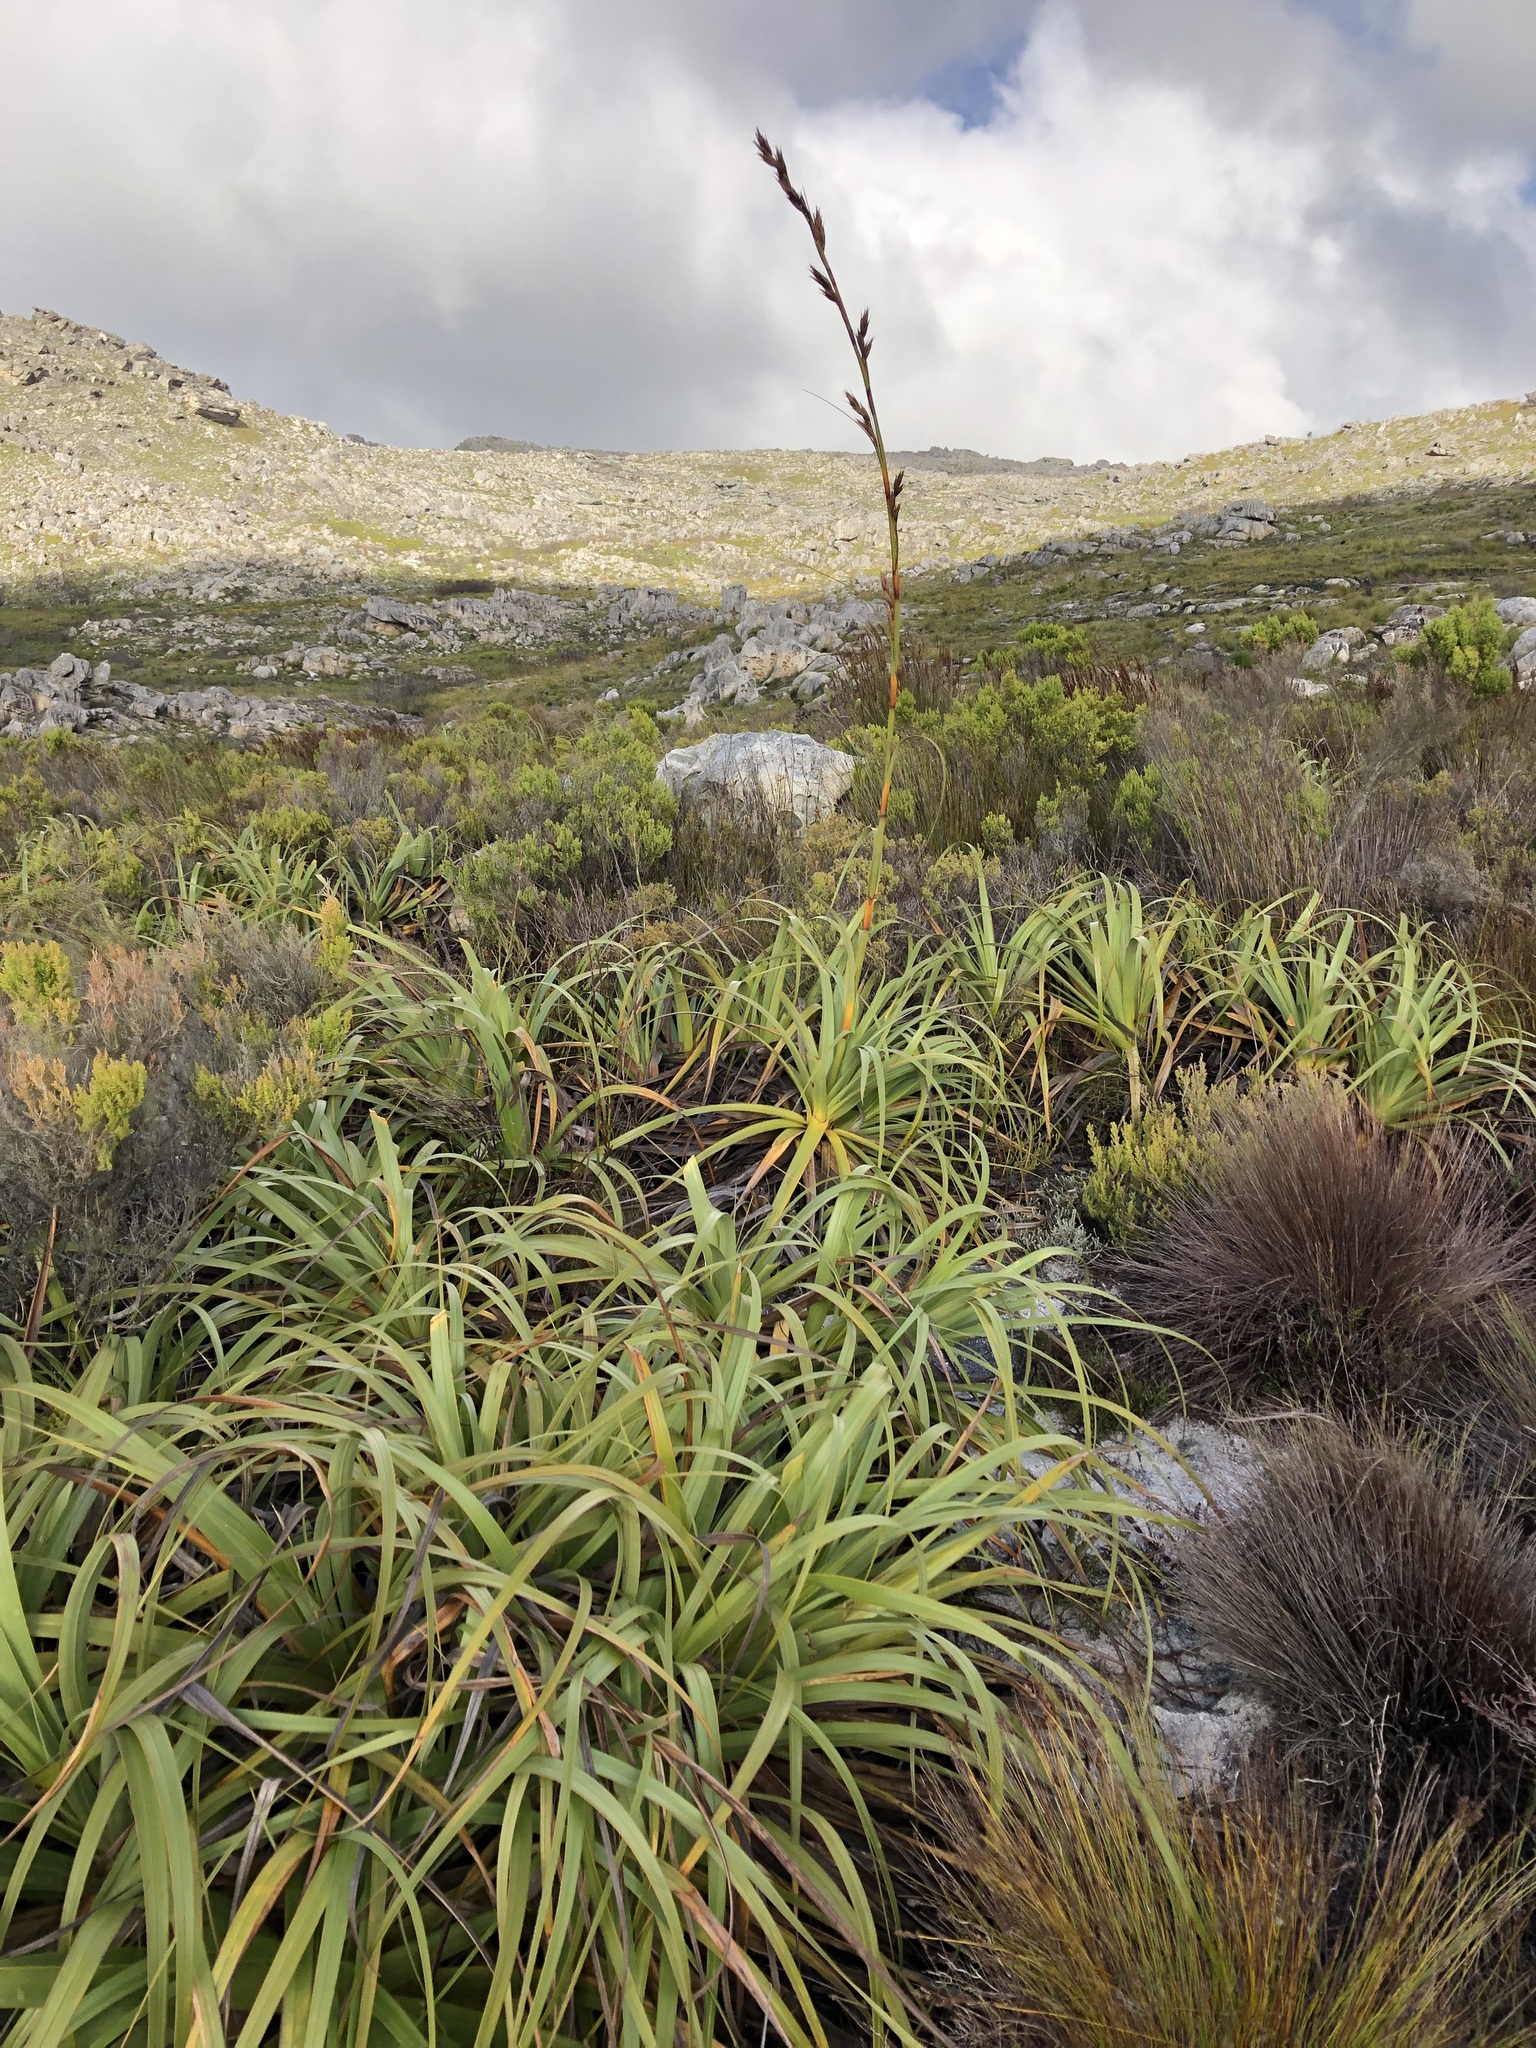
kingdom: Plantae
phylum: Tracheophyta
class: Liliopsida
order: Poales
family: Cyperaceae
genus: Tetraria
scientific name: Tetraria thermalis
